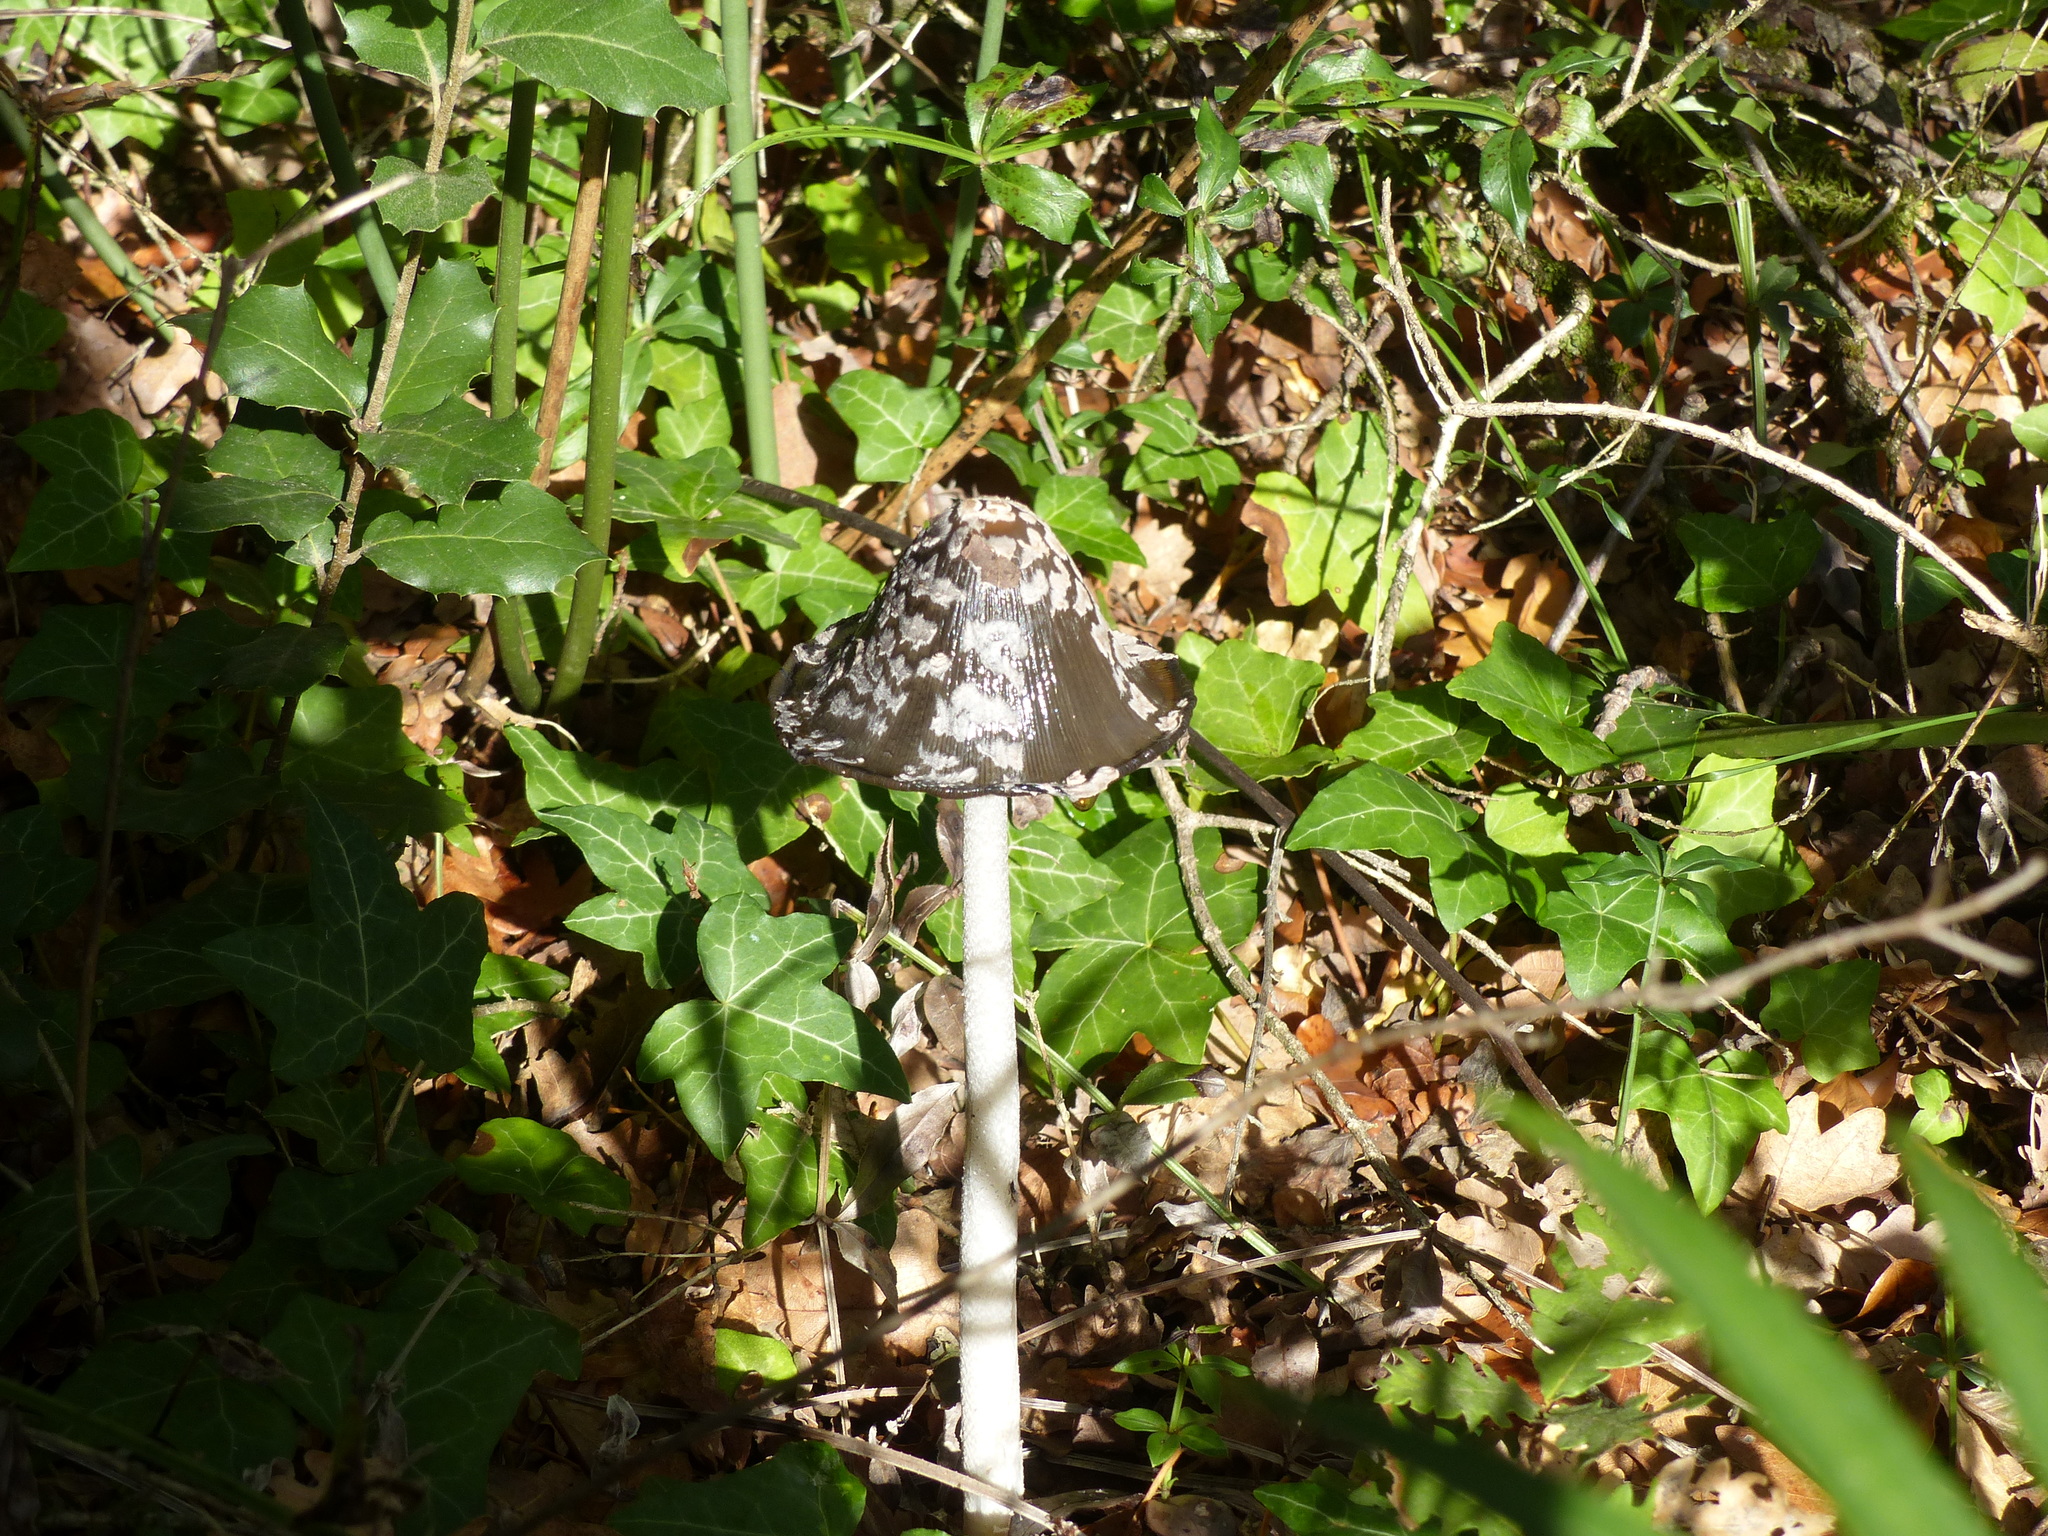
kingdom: Fungi
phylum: Basidiomycota
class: Agaricomycetes
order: Agaricales
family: Psathyrellaceae
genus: Coprinopsis
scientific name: Coprinopsis picacea
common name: Magpie inkcap
